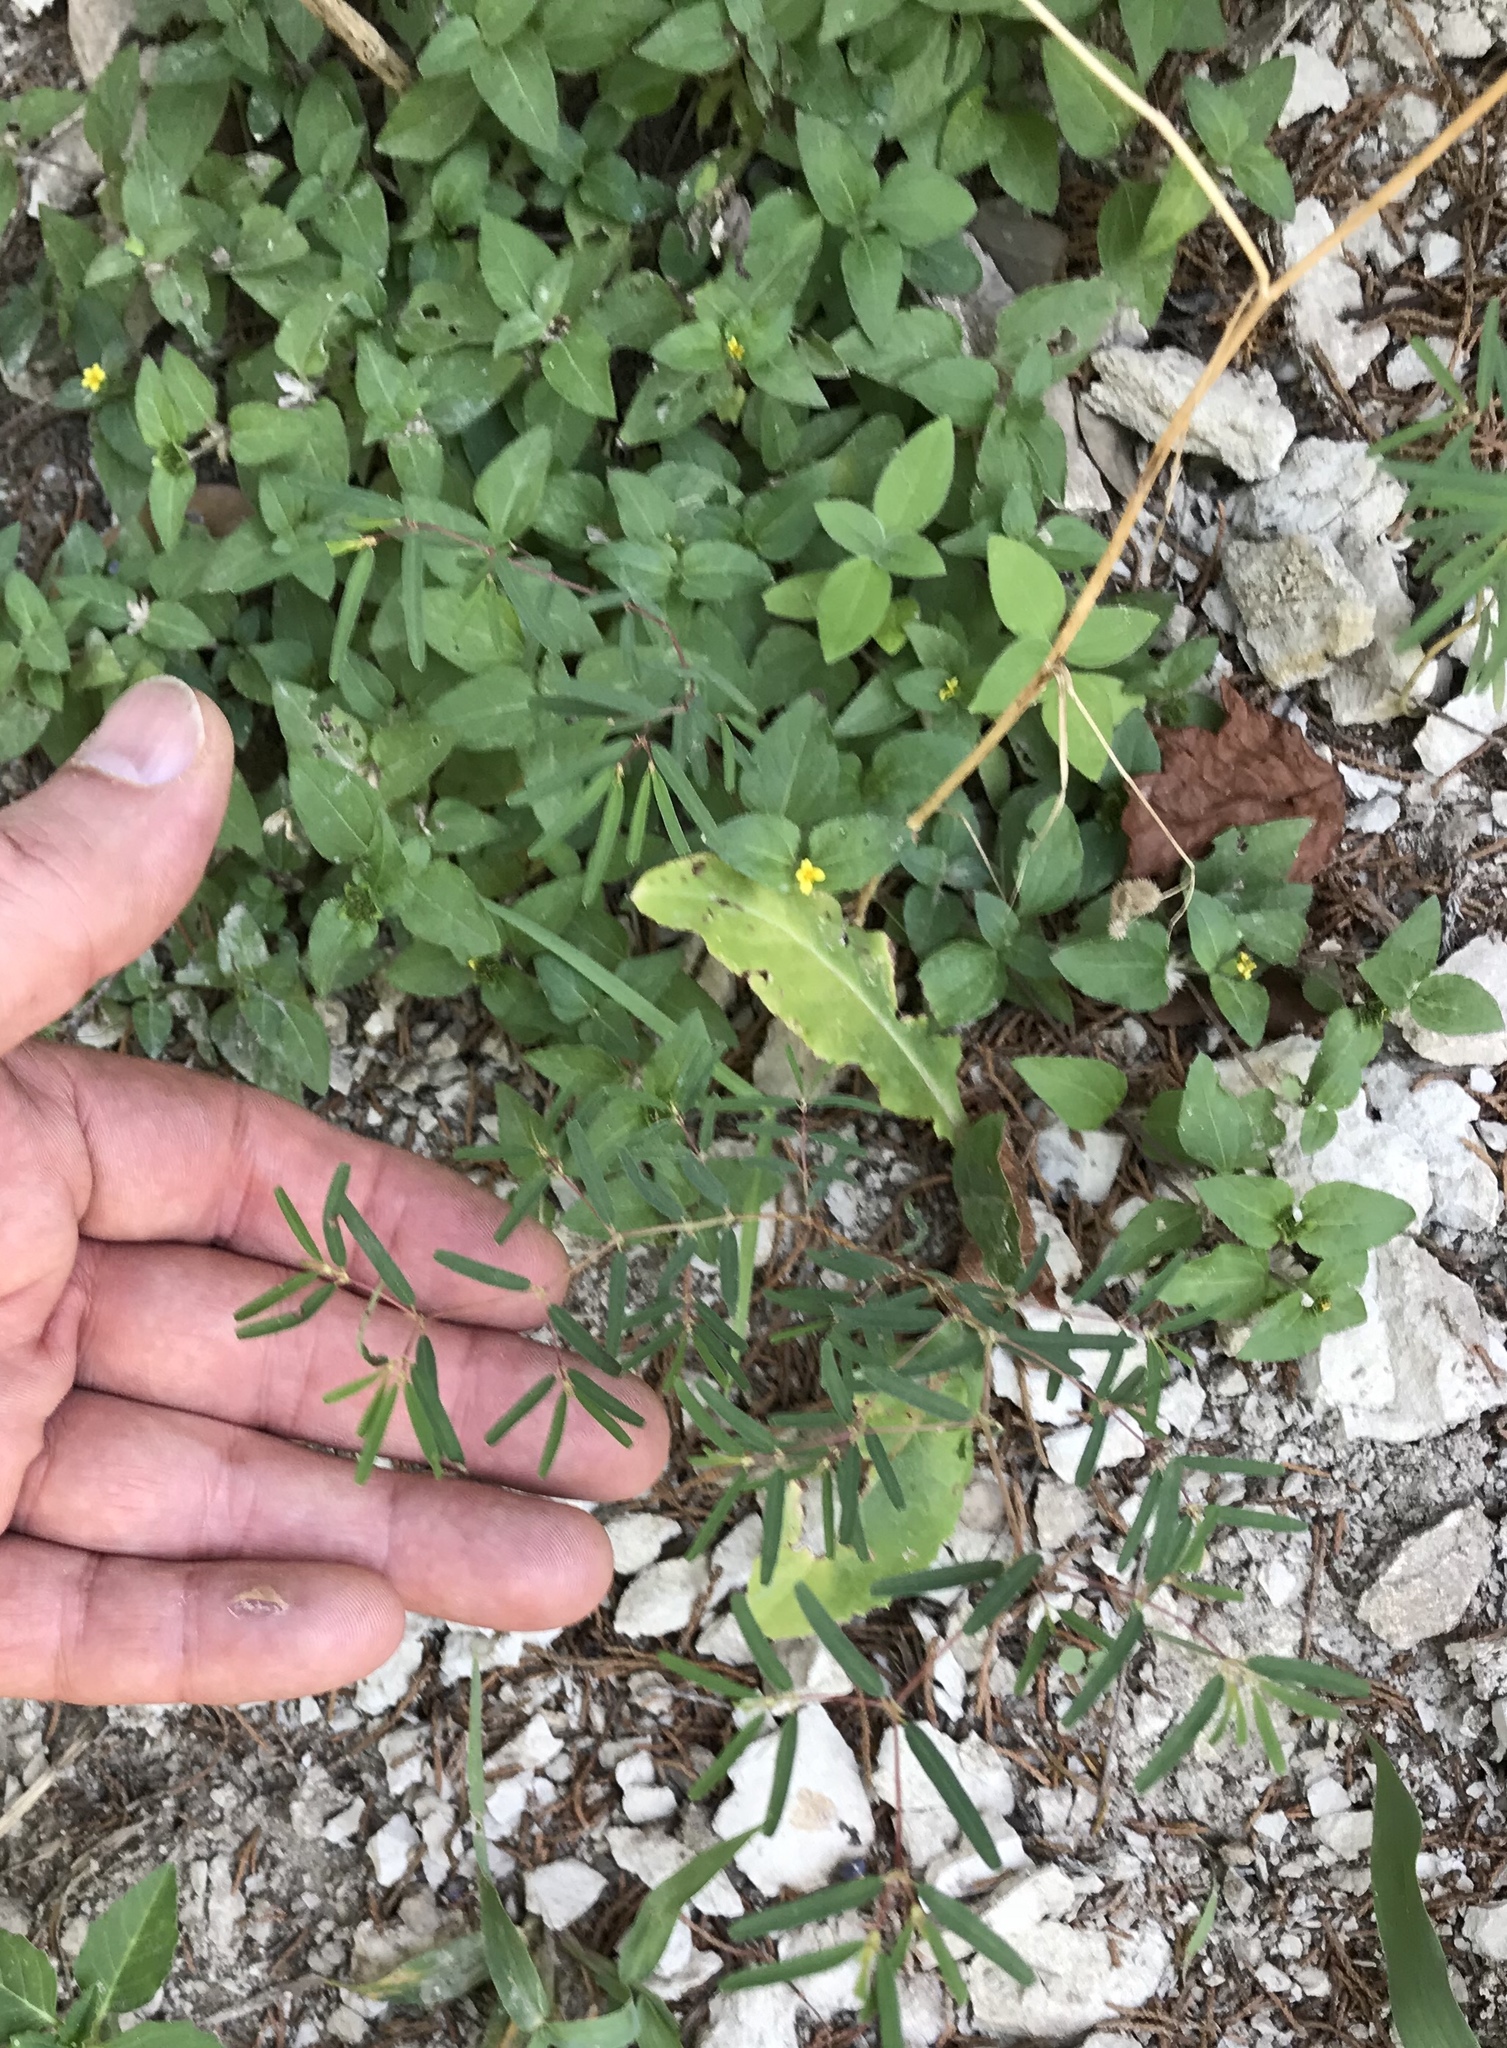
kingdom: Plantae
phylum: Tracheophyta
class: Magnoliopsida
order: Malpighiales
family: Euphorbiaceae
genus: Euphorbia
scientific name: Euphorbia missurica
